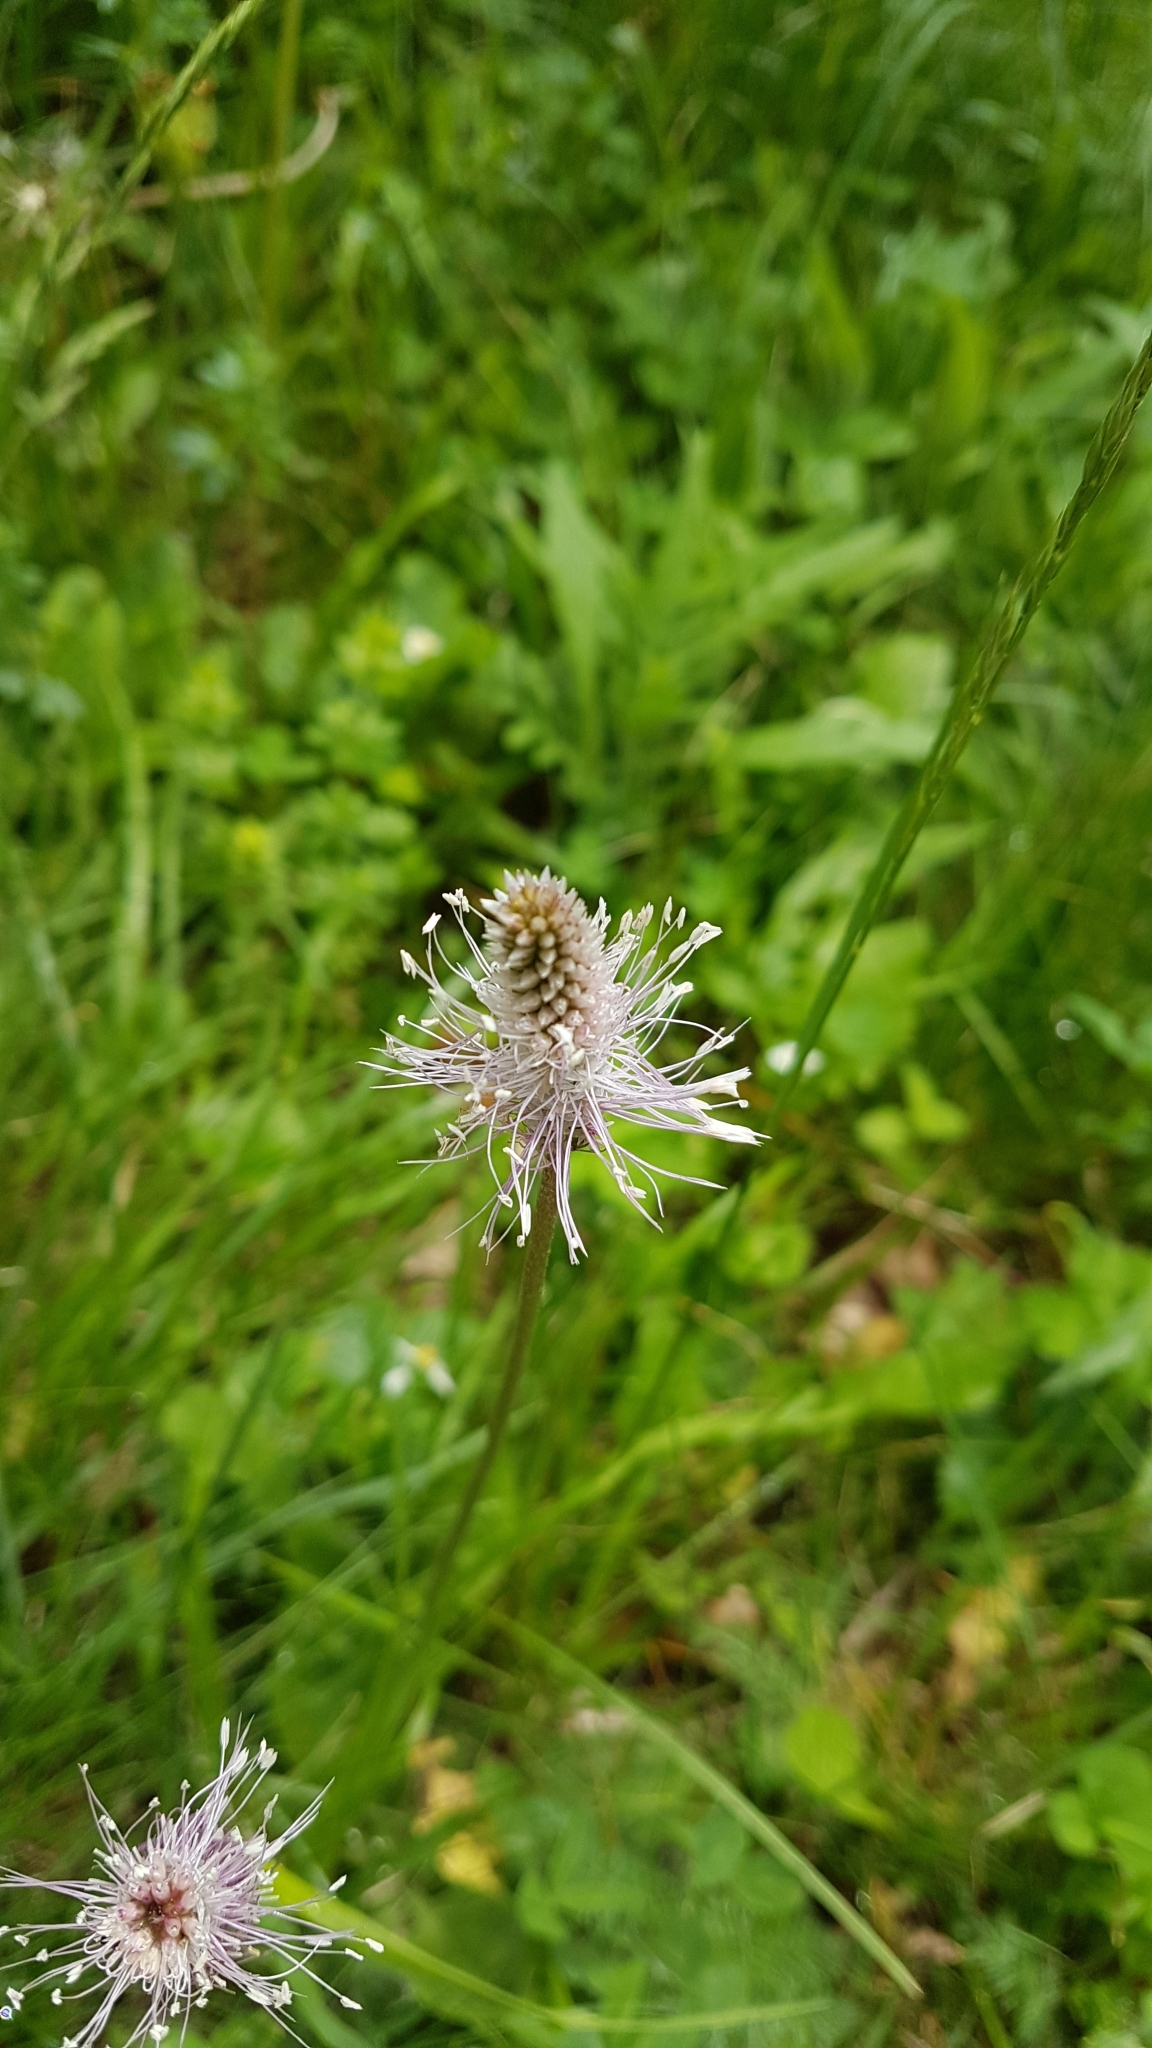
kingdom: Plantae
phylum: Tracheophyta
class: Magnoliopsida
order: Lamiales
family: Plantaginaceae
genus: Plantago
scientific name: Plantago media
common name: Hoary plantain
